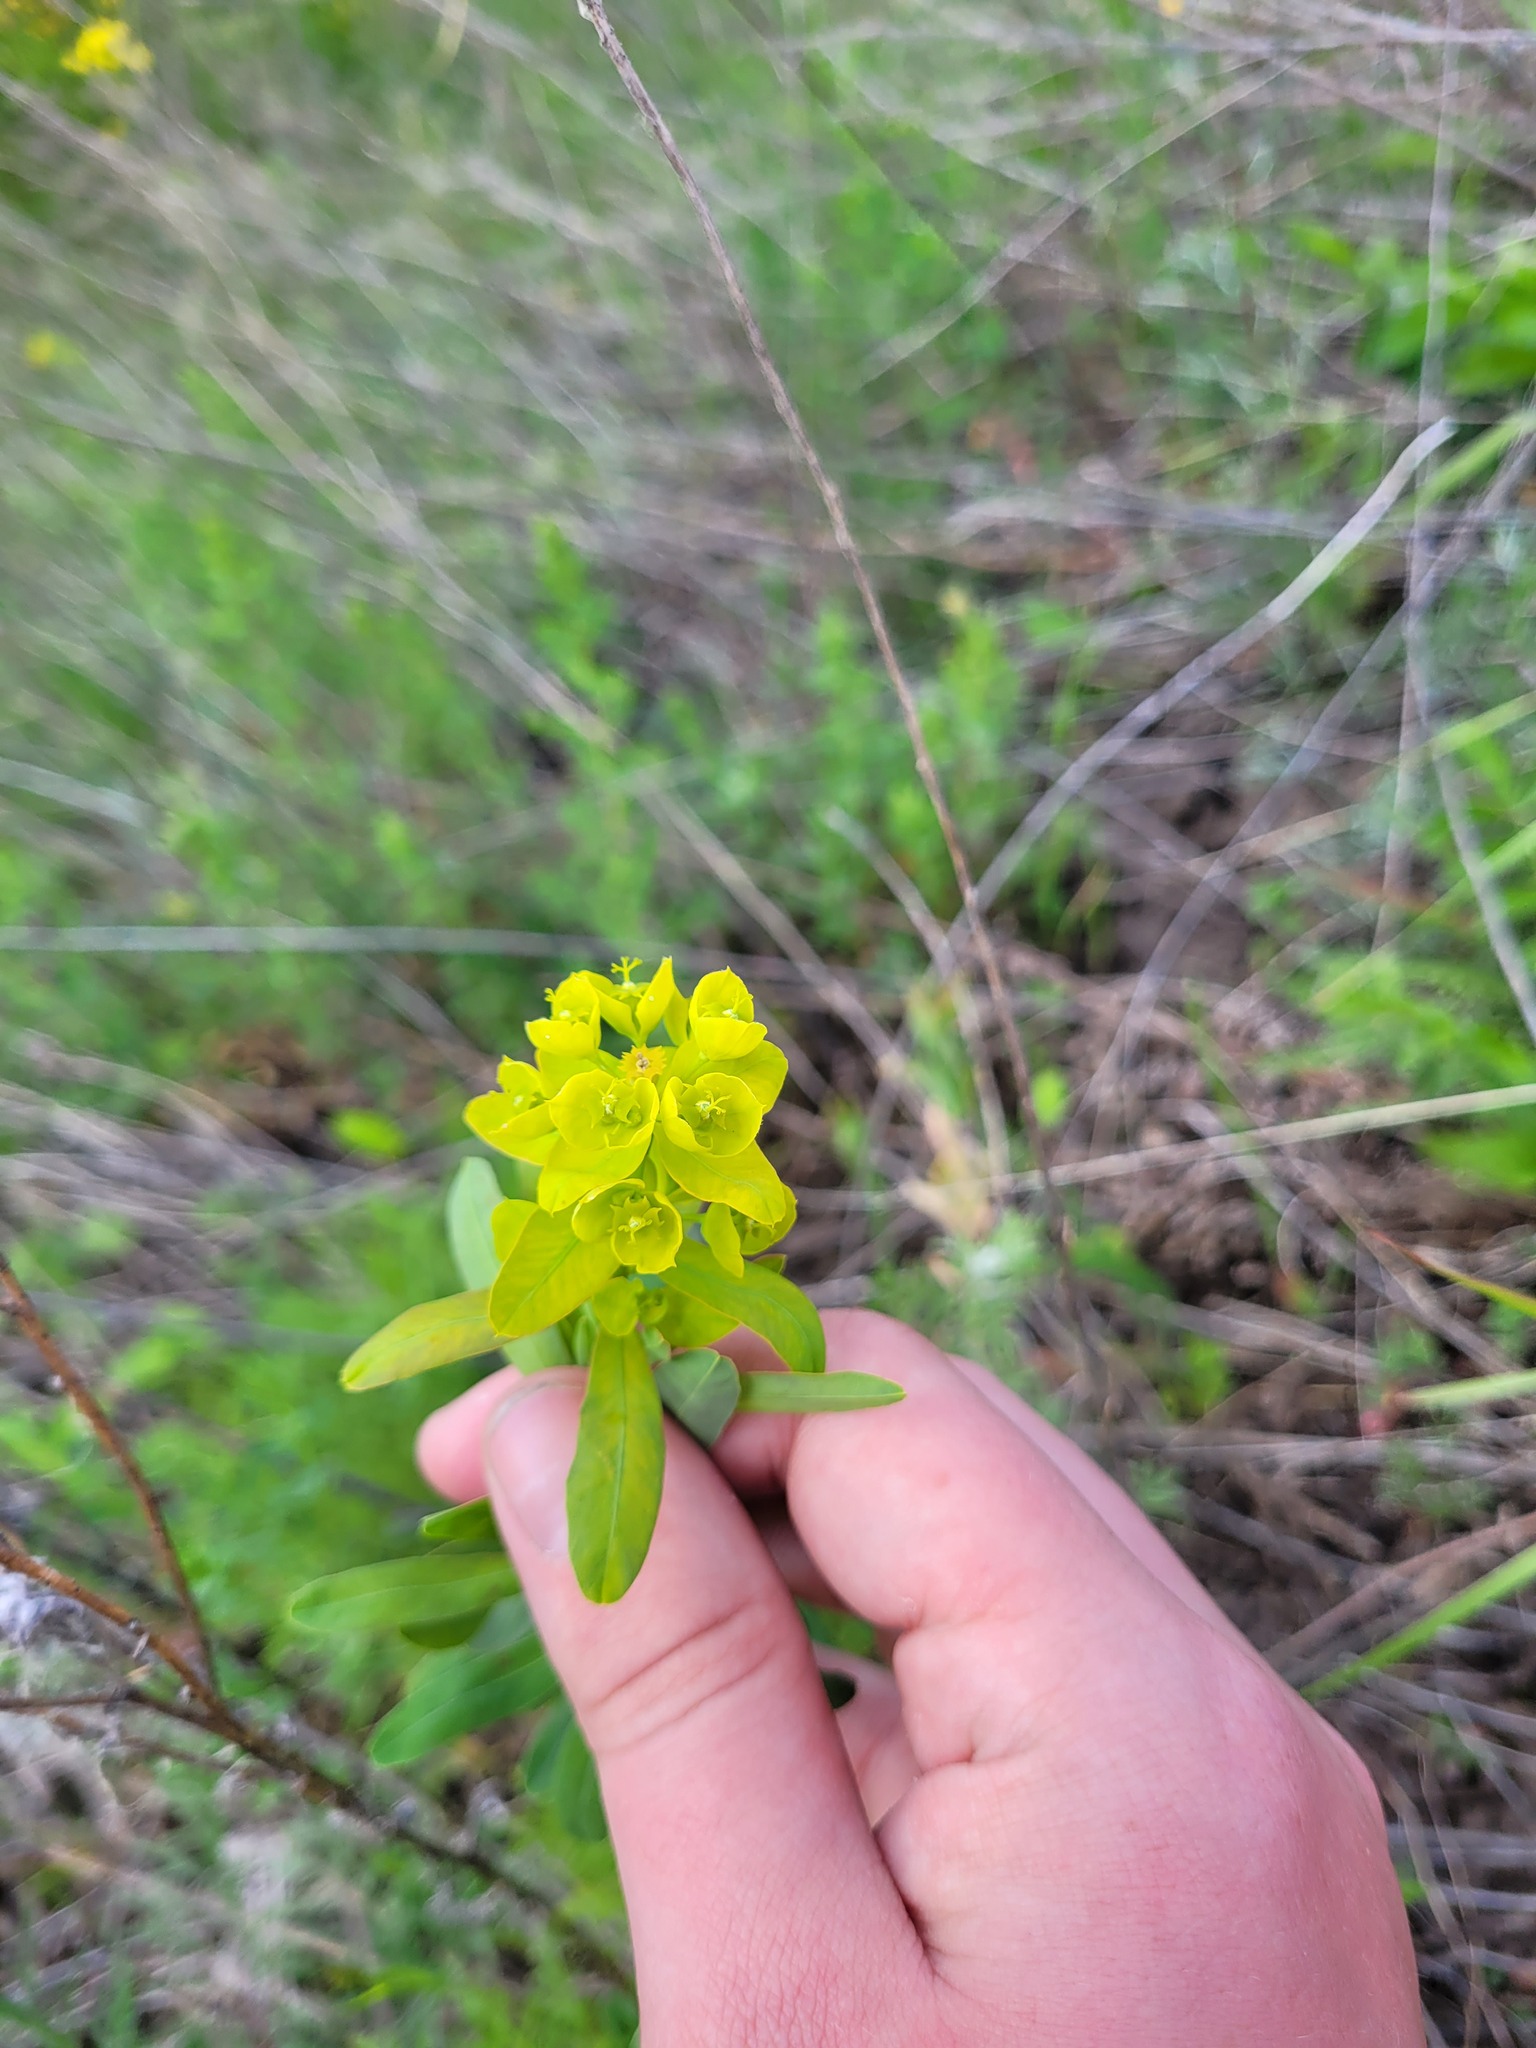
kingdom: Plantae
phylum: Tracheophyta
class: Magnoliopsida
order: Malpighiales
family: Euphorbiaceae
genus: Euphorbia
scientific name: Euphorbia virgata
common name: Leafy spurge
